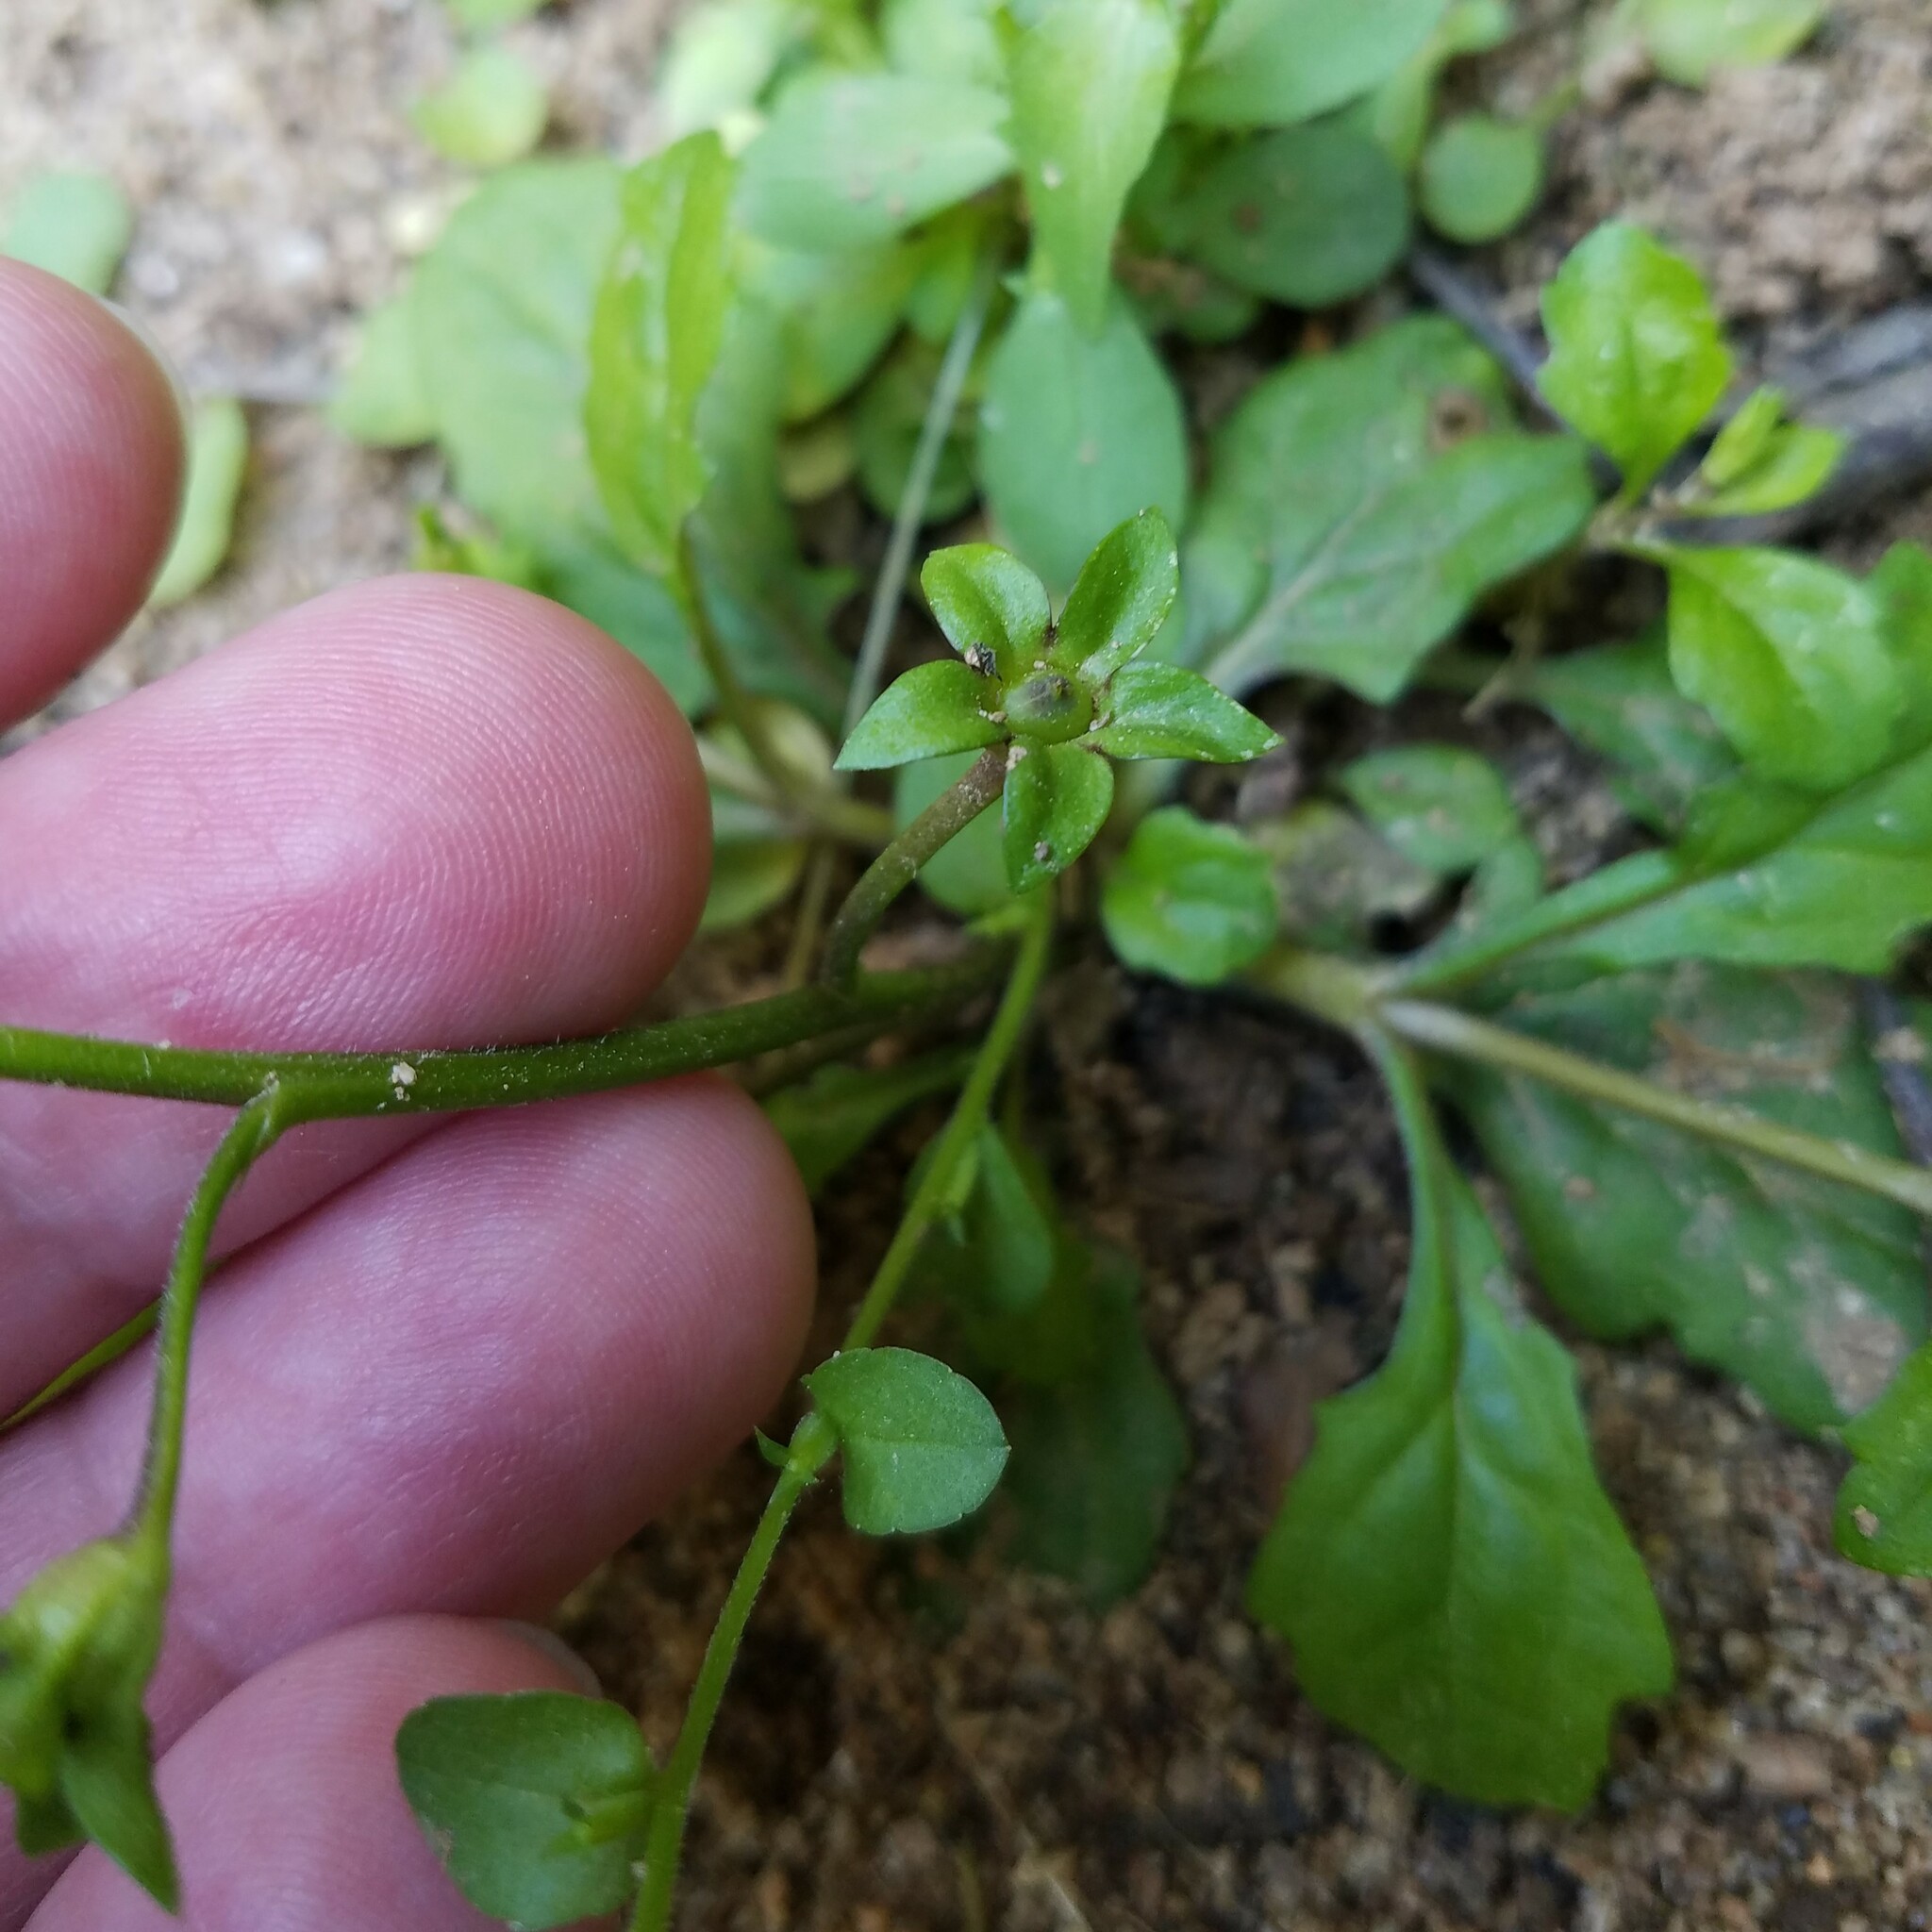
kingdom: Plantae
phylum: Tracheophyta
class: Magnoliopsida
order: Lamiales
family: Mazaceae
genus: Mazus
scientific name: Mazus pumilus
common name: Japanese mazus
